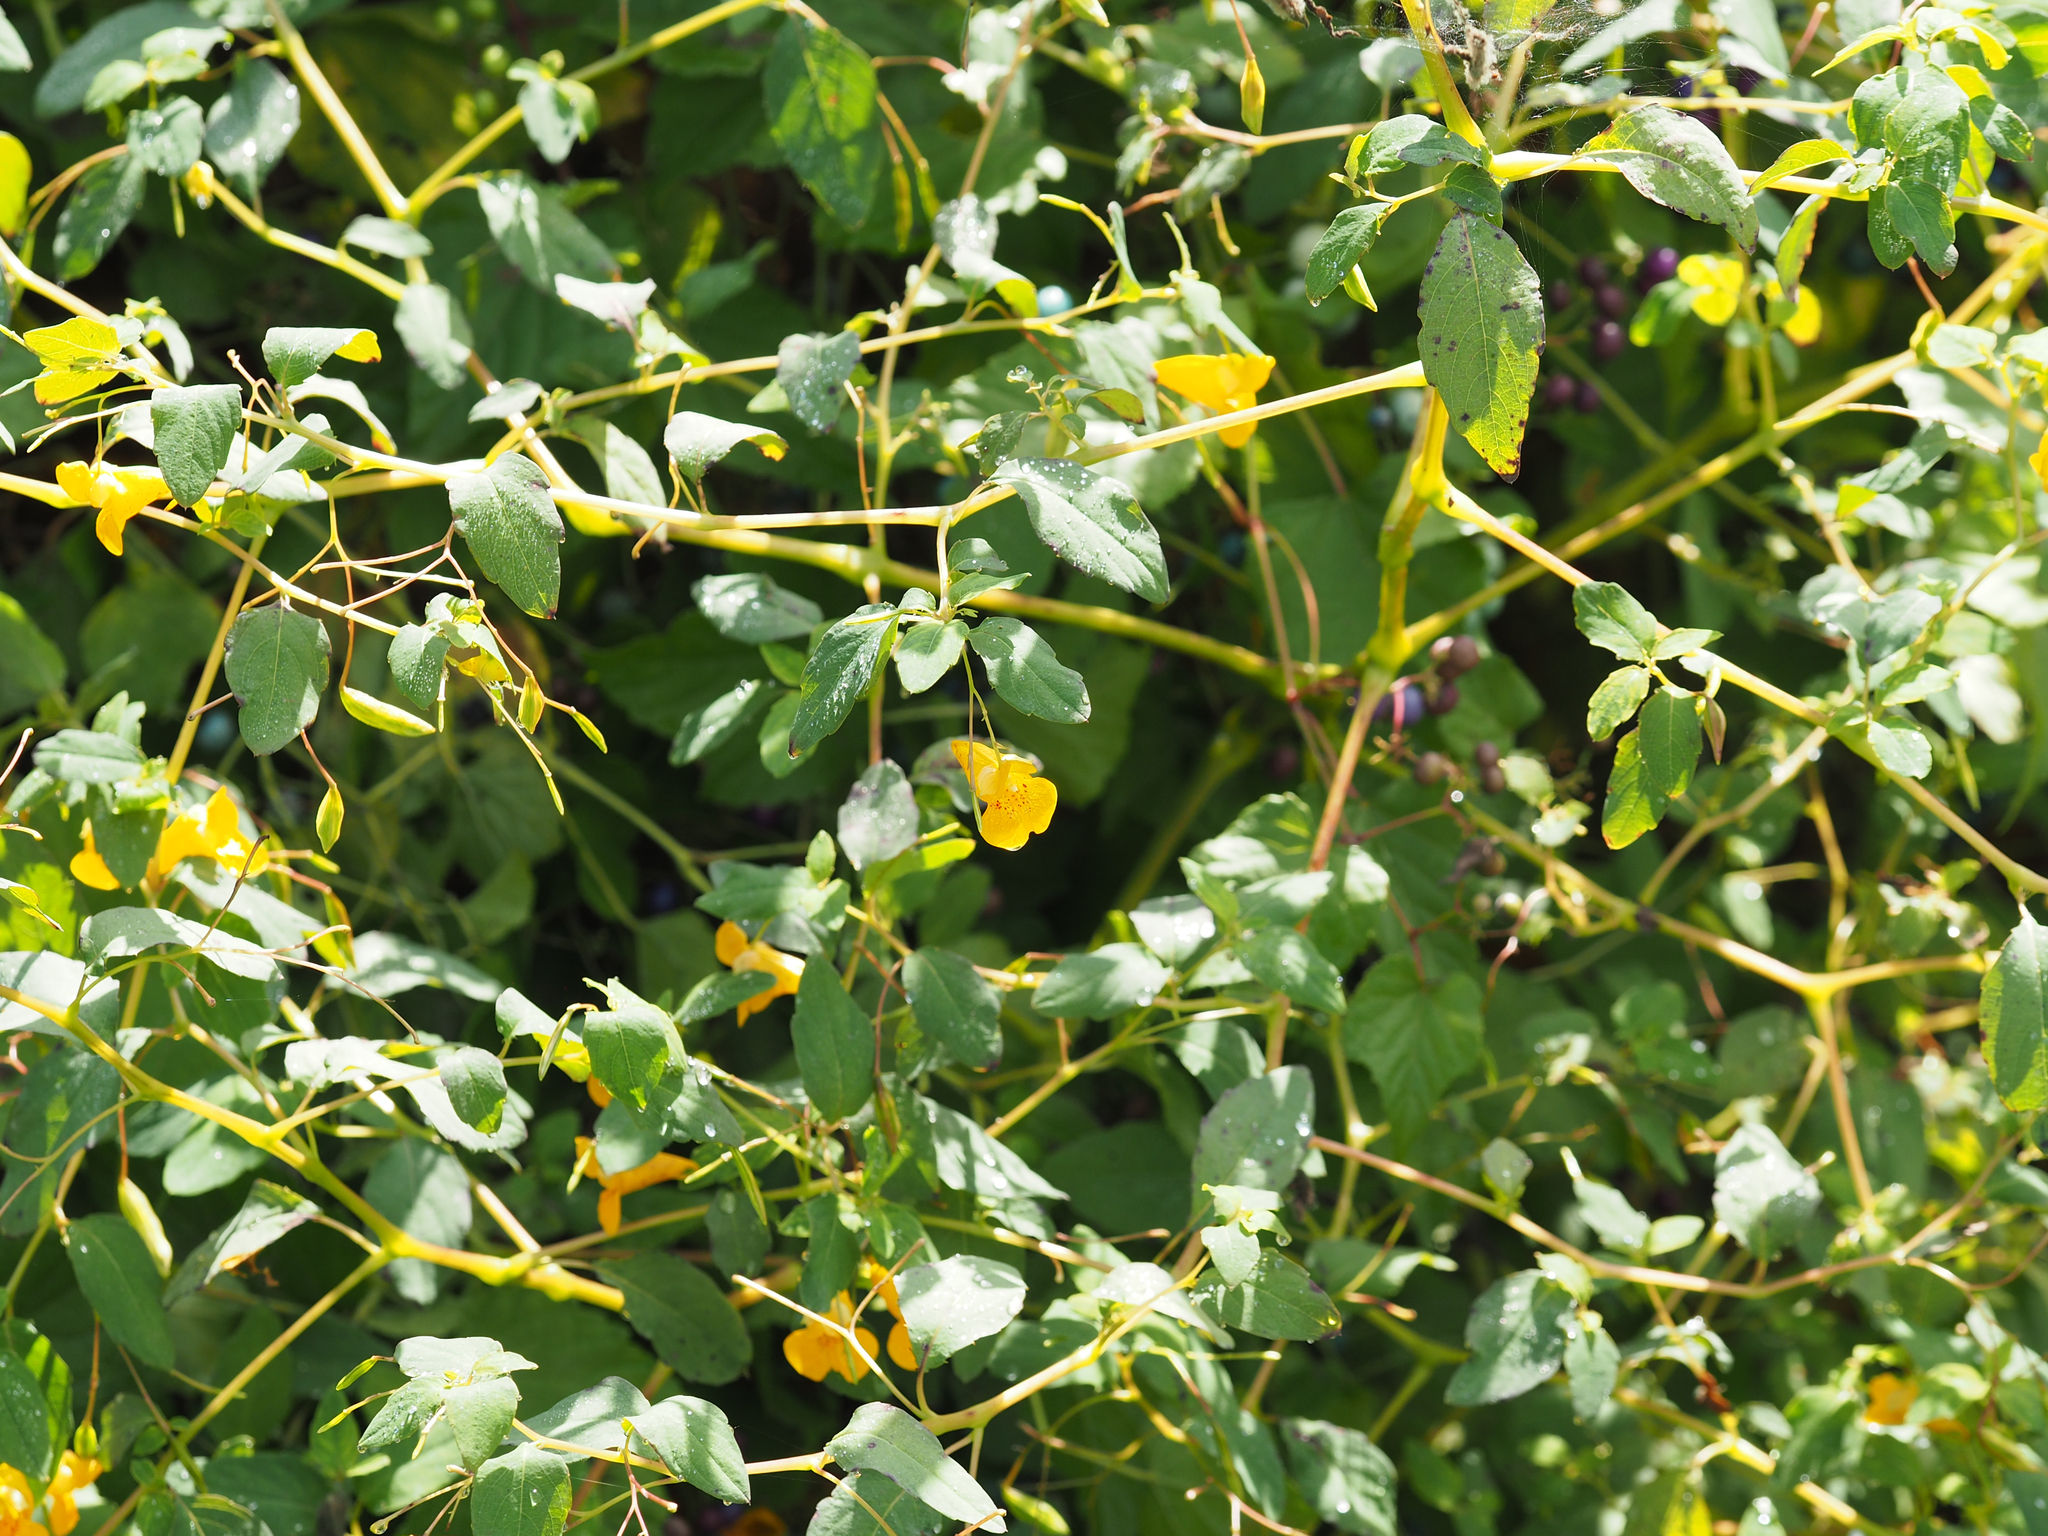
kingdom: Plantae
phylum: Tracheophyta
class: Magnoliopsida
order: Ericales
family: Balsaminaceae
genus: Impatiens
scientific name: Impatiens capensis
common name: Orange balsam
